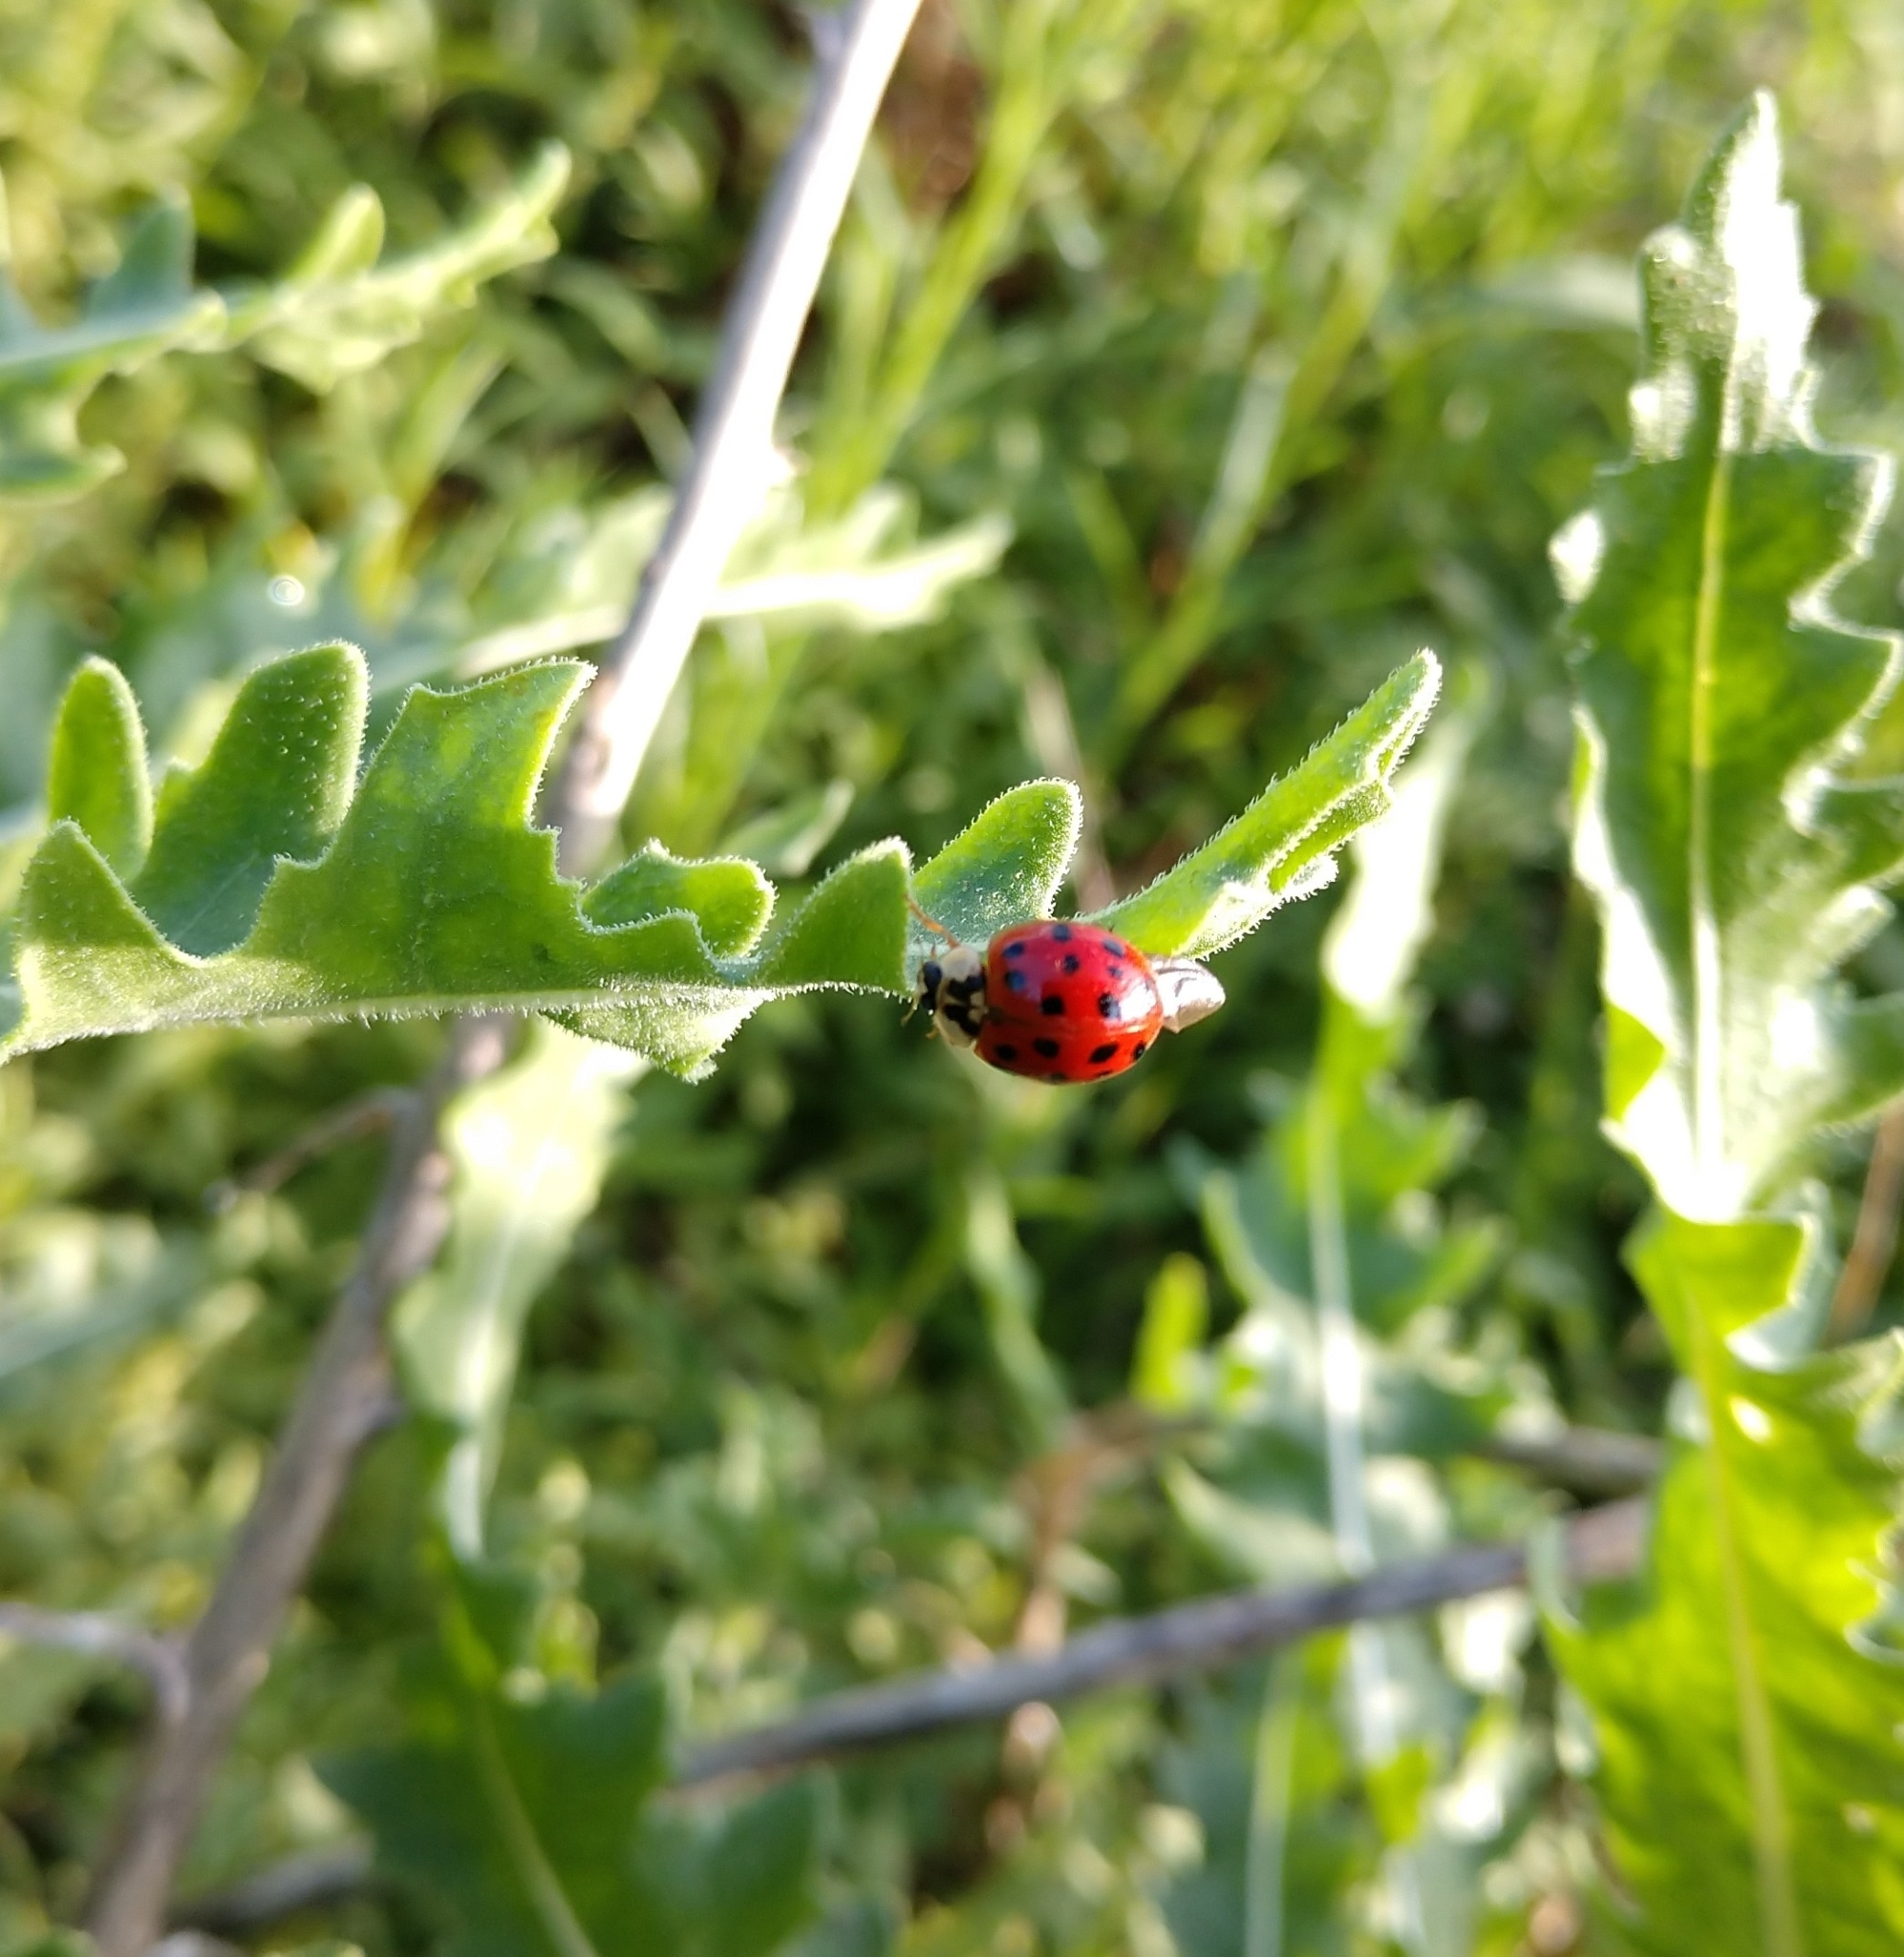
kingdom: Animalia
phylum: Arthropoda
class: Insecta
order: Coleoptera
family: Coccinellidae
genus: Harmonia
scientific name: Harmonia axyridis
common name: Harlequin ladybird
